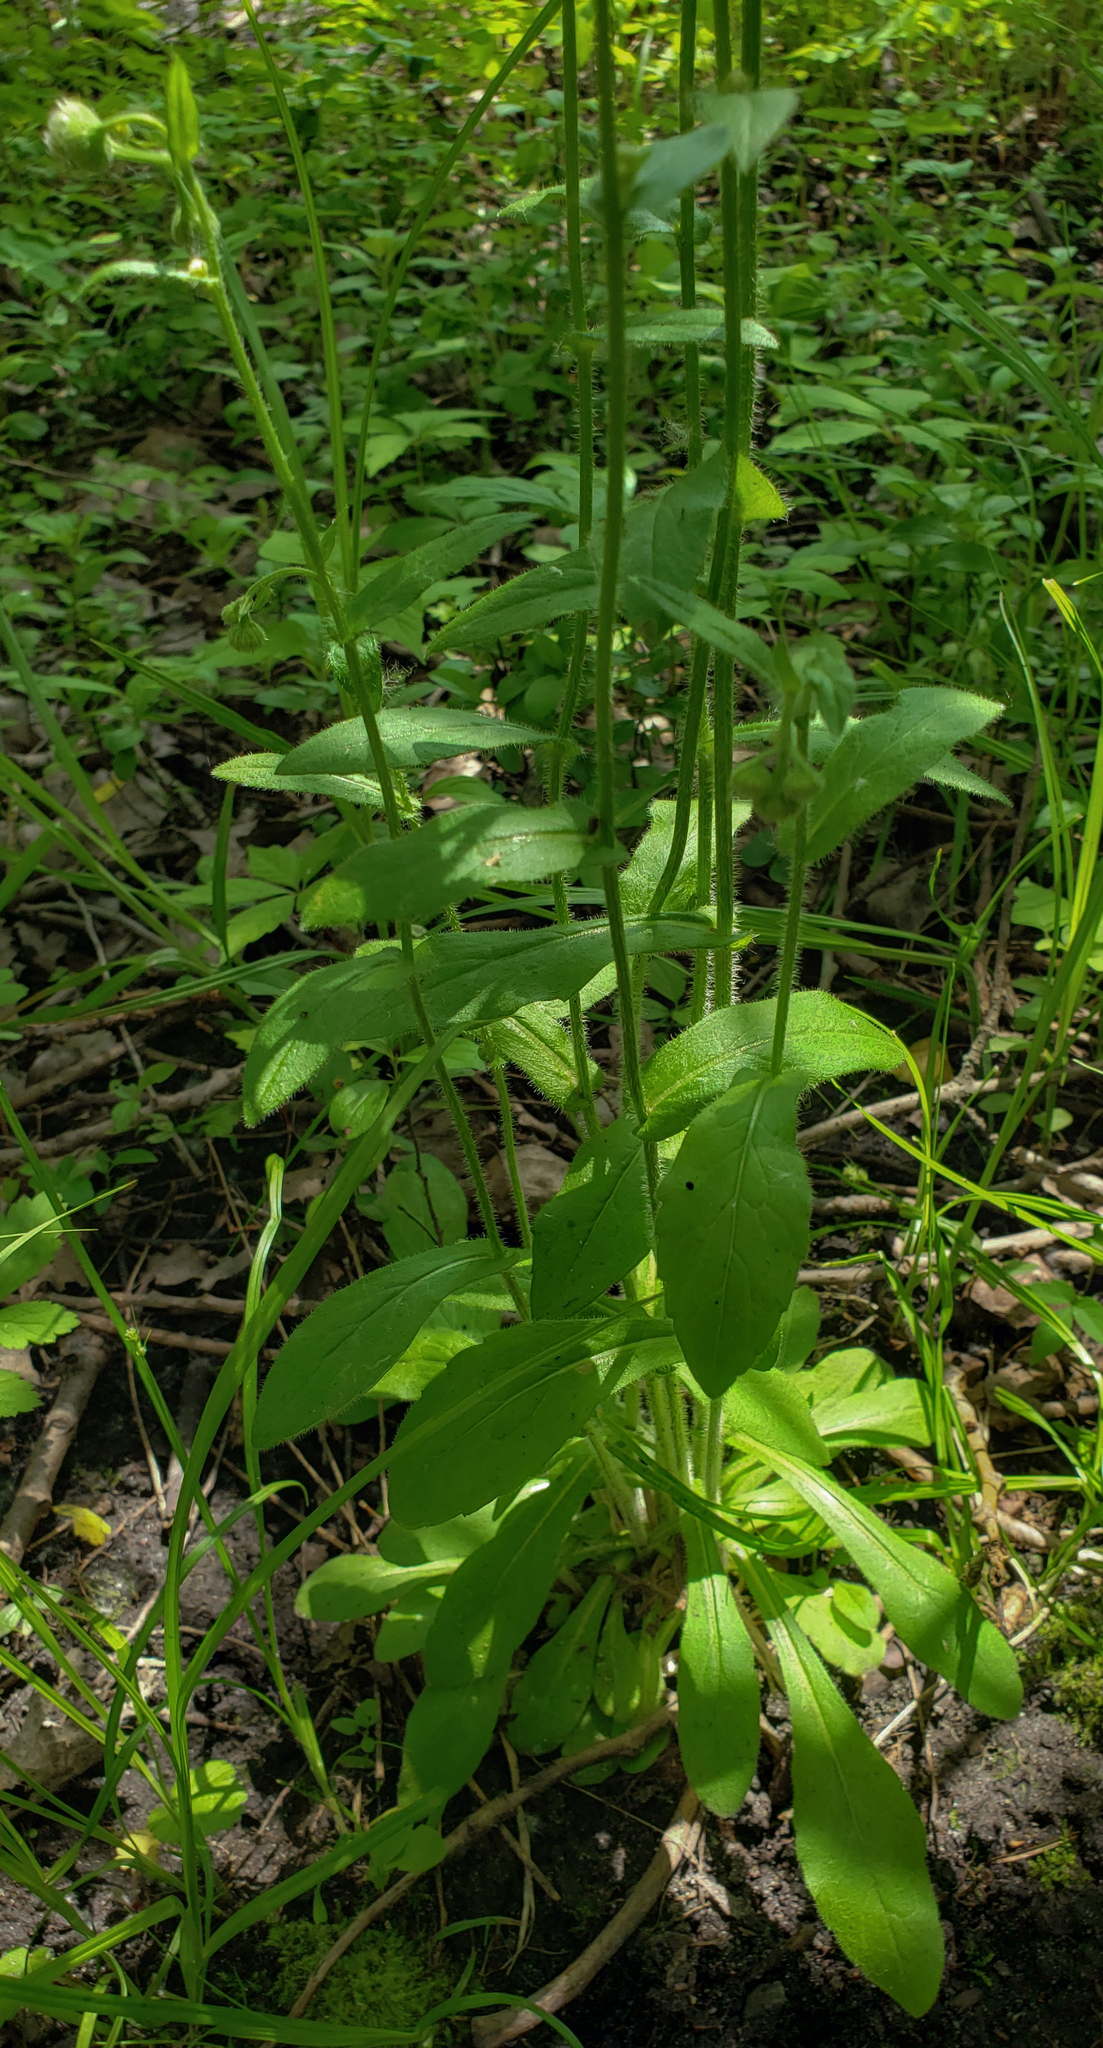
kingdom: Plantae
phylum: Tracheophyta
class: Magnoliopsida
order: Asterales
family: Asteraceae
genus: Erigeron
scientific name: Erigeron philadelphicus
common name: Robin's-plantain
